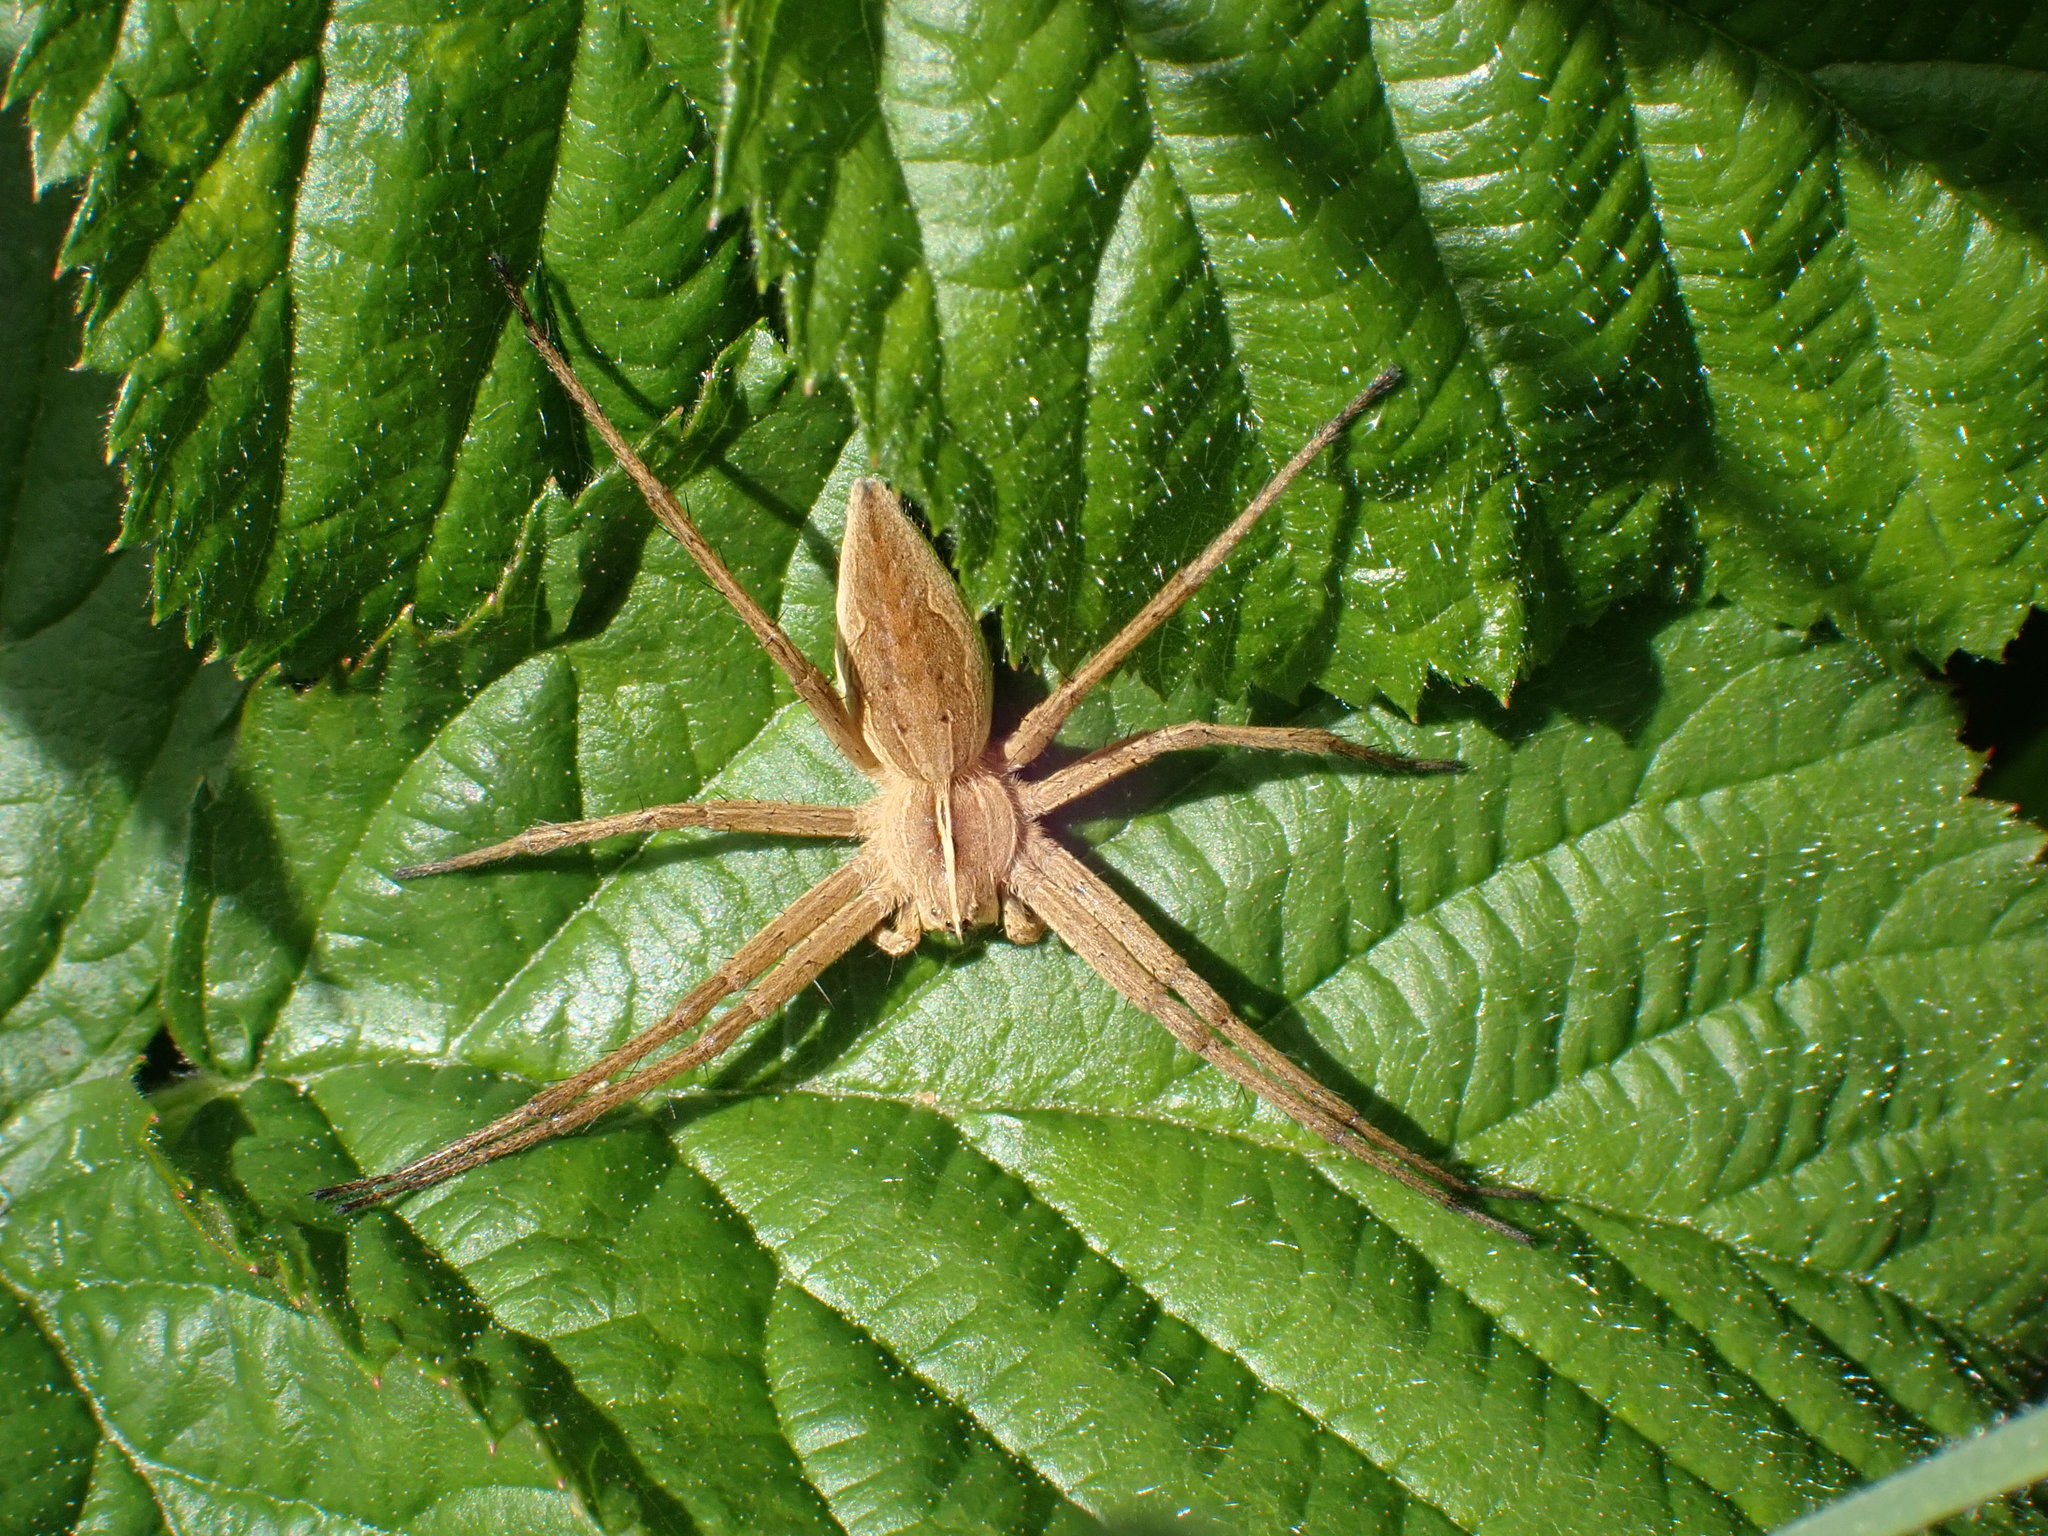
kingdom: Animalia
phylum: Arthropoda
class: Arachnida
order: Araneae
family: Pisauridae
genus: Pisaura
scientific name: Pisaura mirabilis
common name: Tent spider
